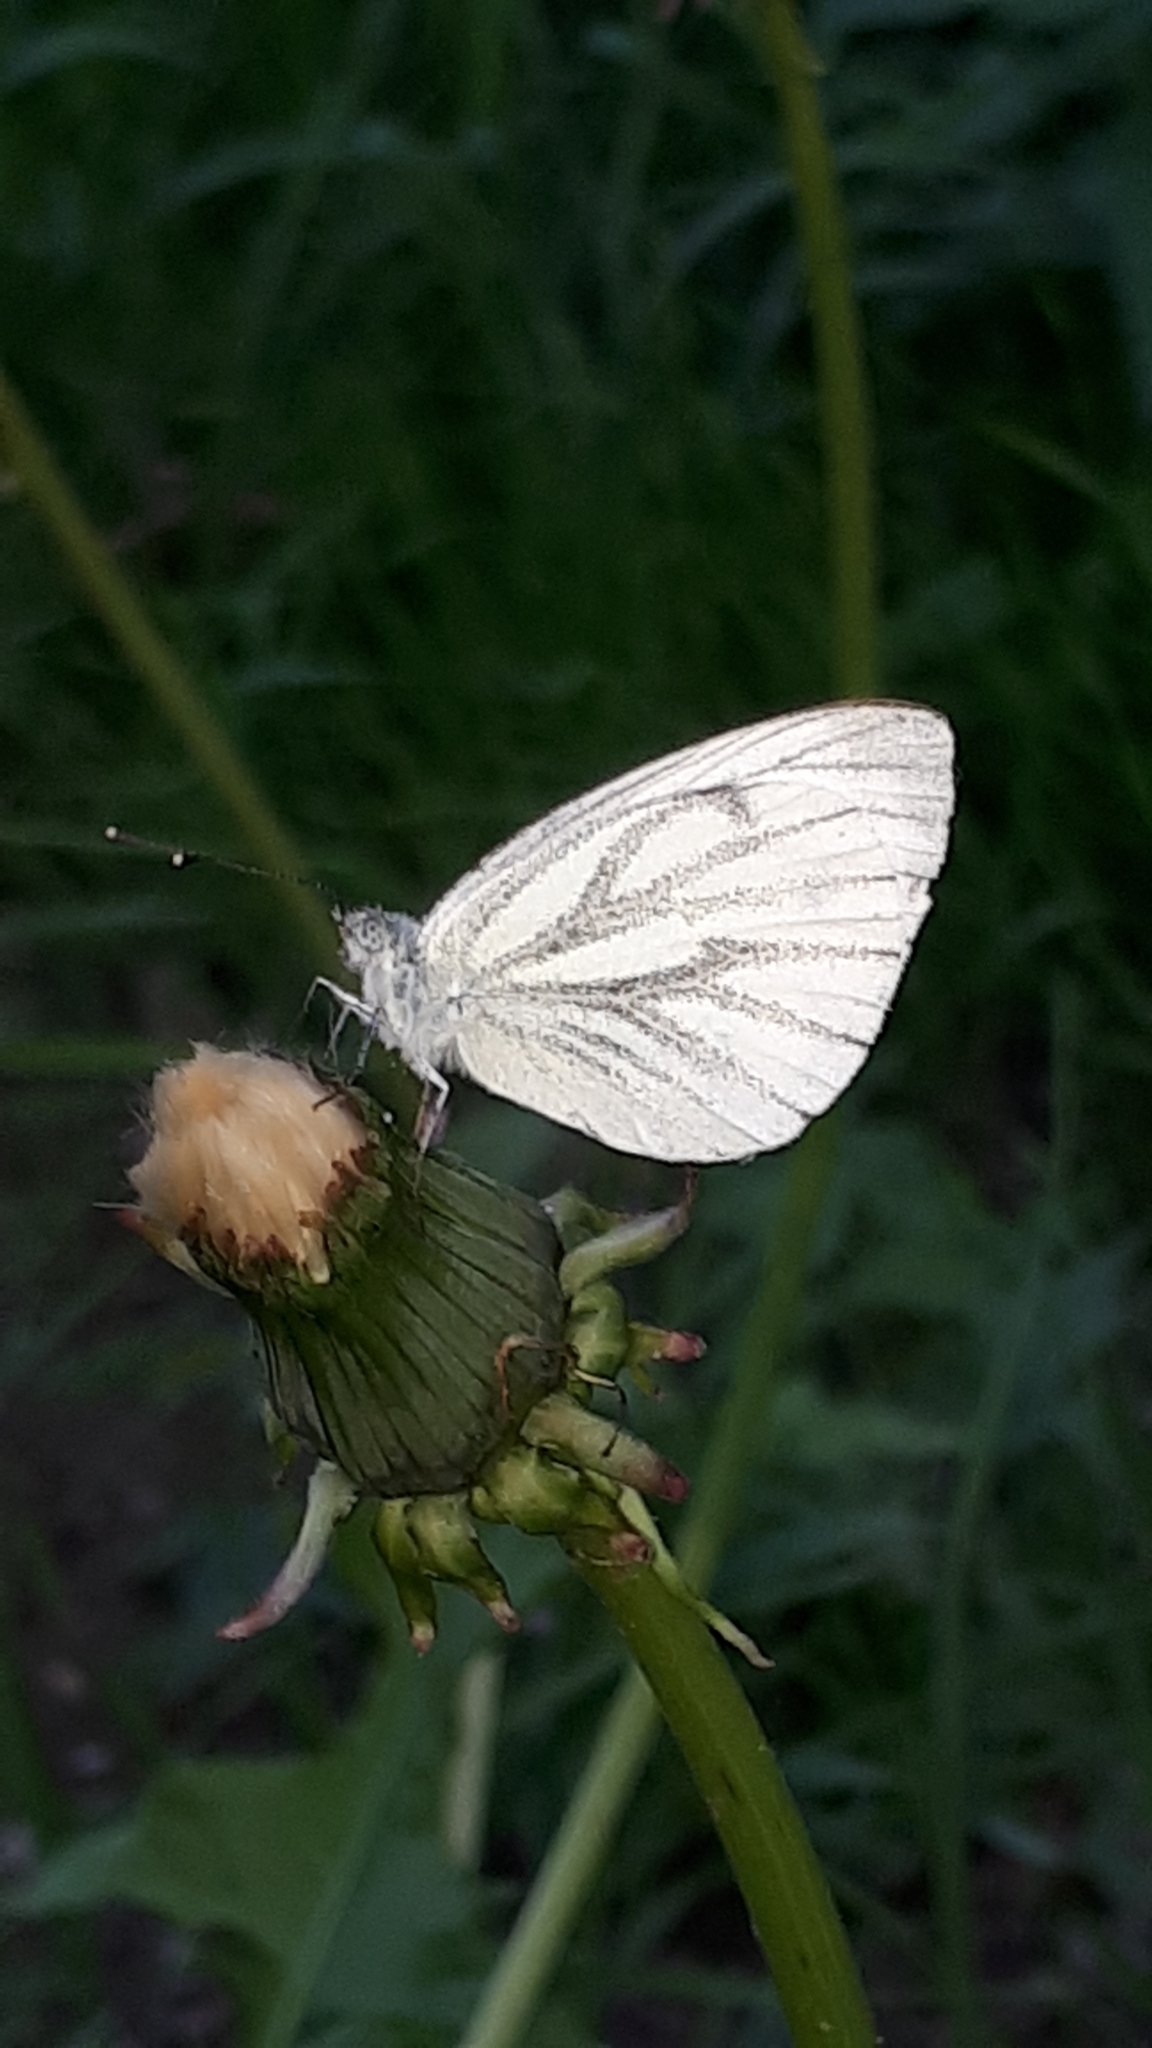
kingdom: Animalia
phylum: Arthropoda
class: Insecta
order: Lepidoptera
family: Pieridae
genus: Pieris
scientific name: Pieris napi
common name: Green-veined white
